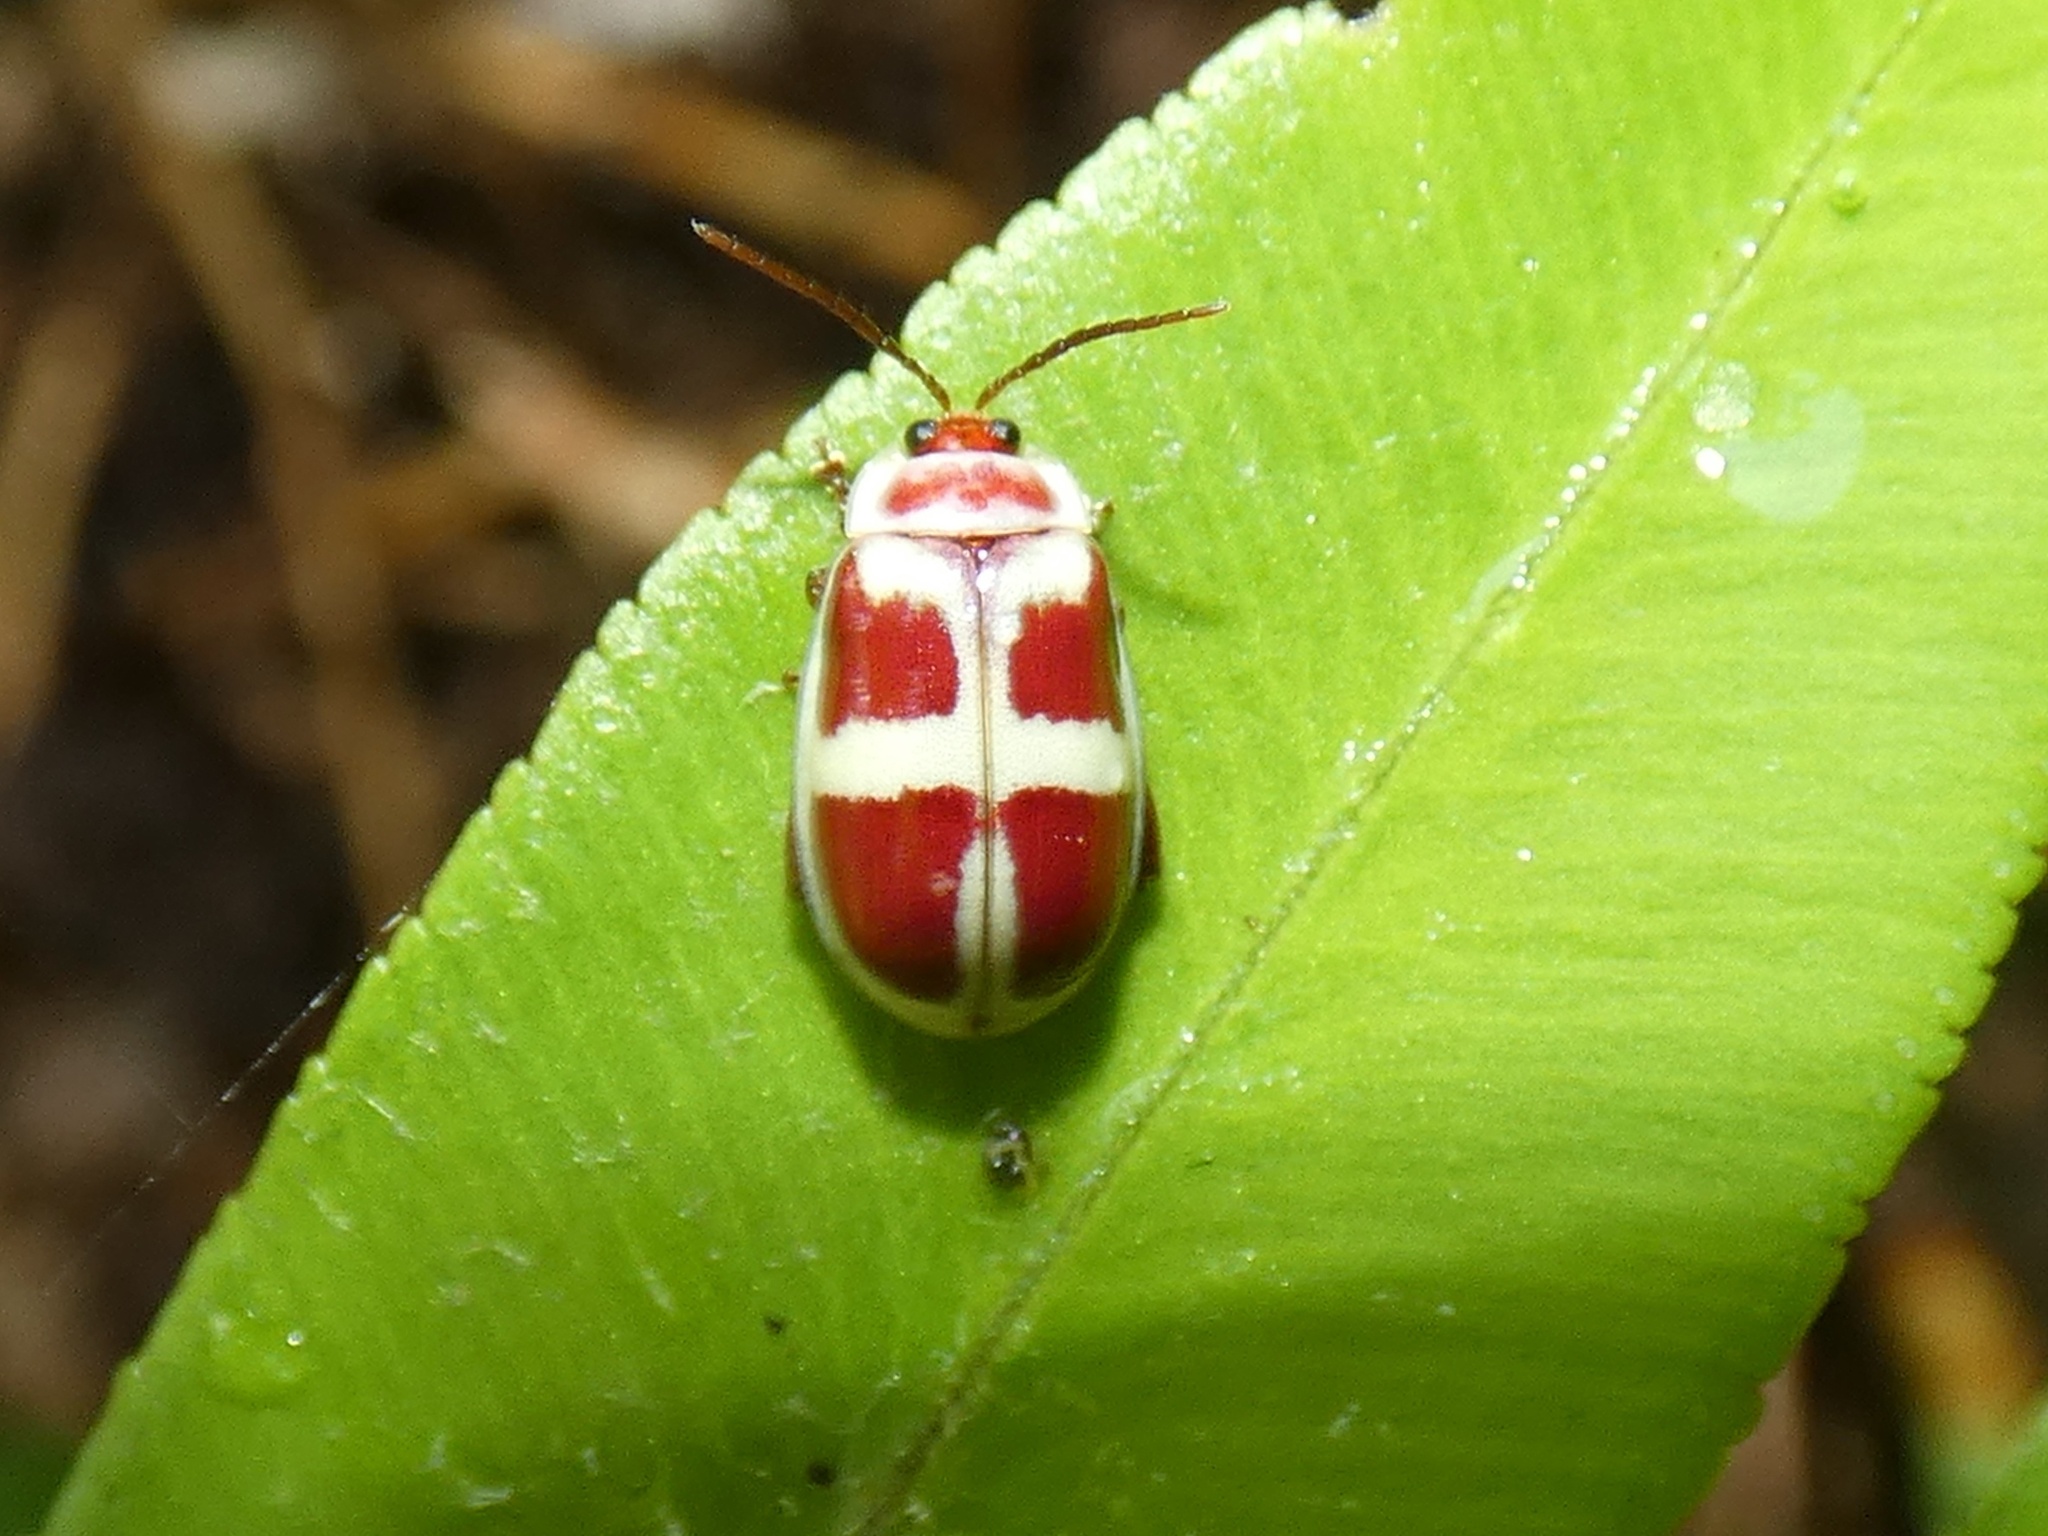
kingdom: Animalia
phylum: Arthropoda
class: Insecta
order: Coleoptera
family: Chrysomelidae
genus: Asphaera
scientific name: Asphaera discicollis
